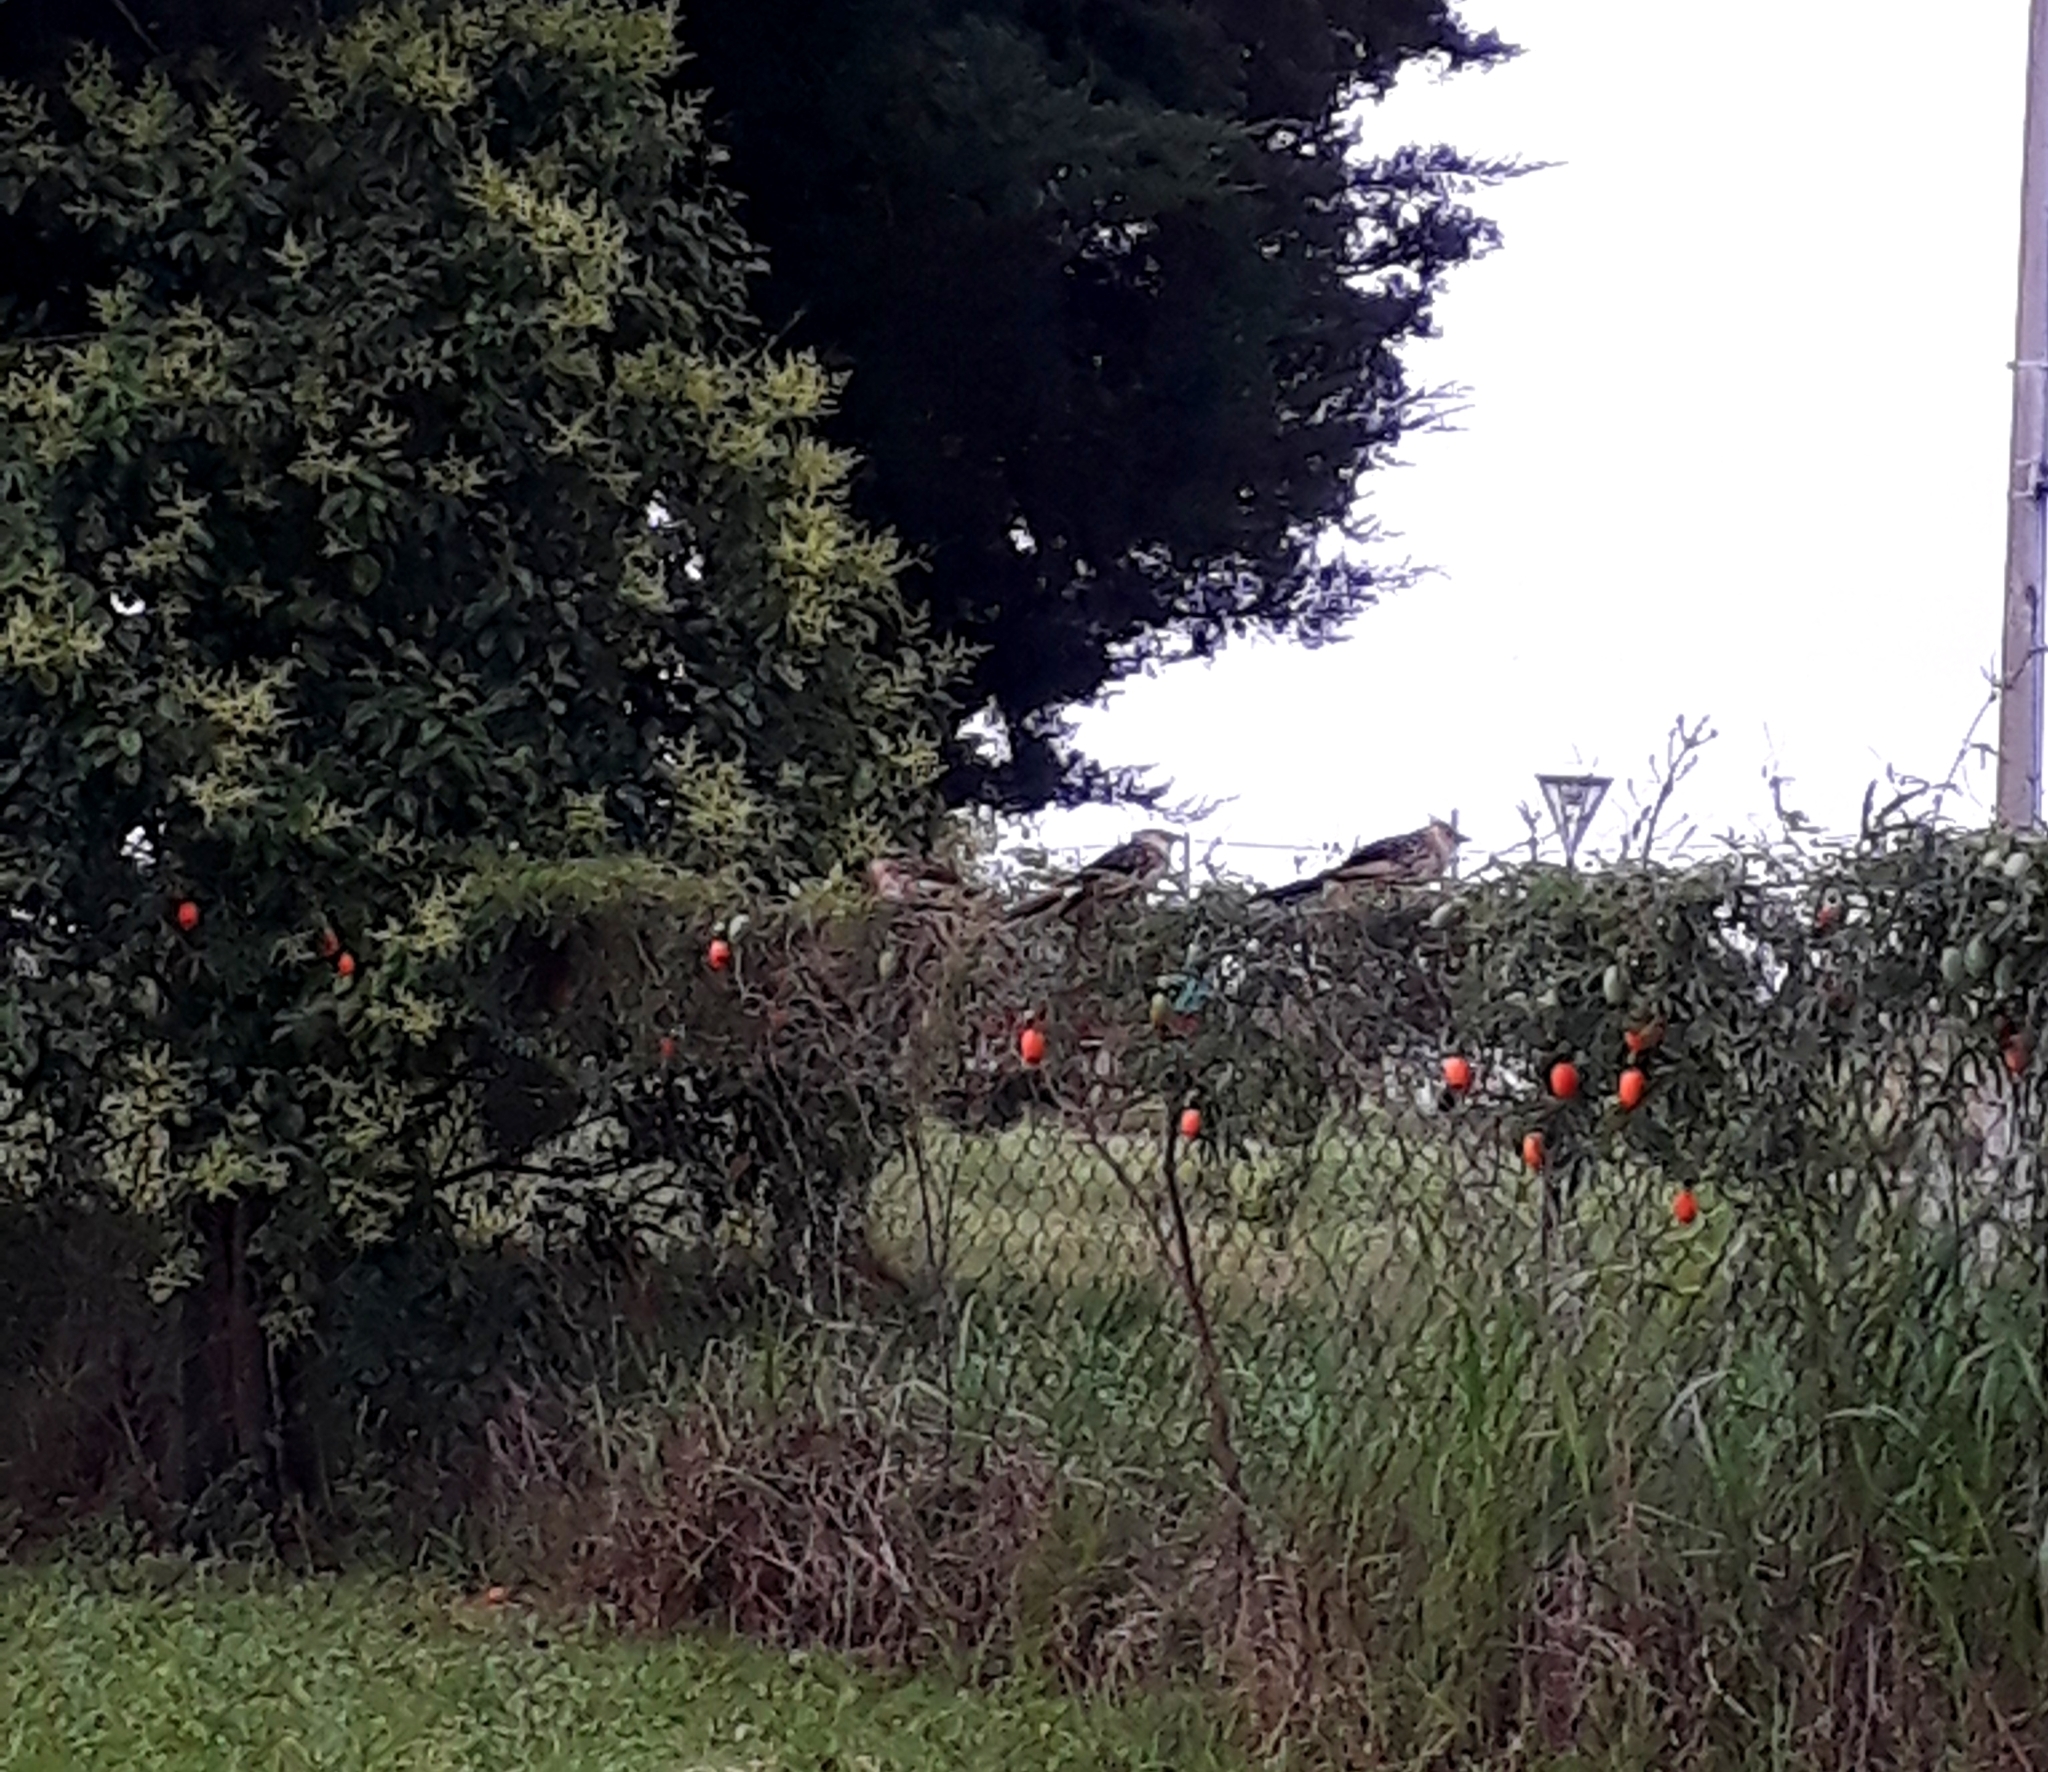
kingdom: Animalia
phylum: Chordata
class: Aves
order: Cuculiformes
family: Cuculidae
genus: Guira
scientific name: Guira guira
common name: Guira cuckoo
